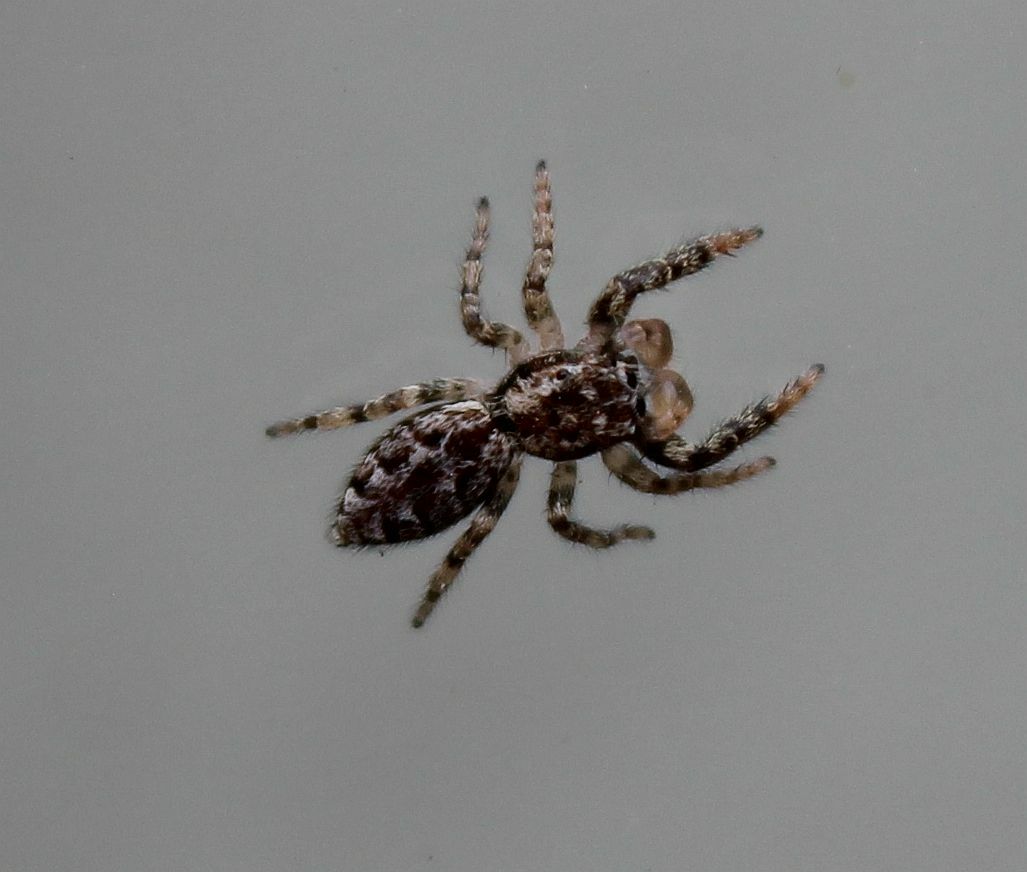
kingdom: Animalia
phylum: Arthropoda
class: Arachnida
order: Araneae
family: Salticidae
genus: Marpissa
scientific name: Marpissa muscosa
